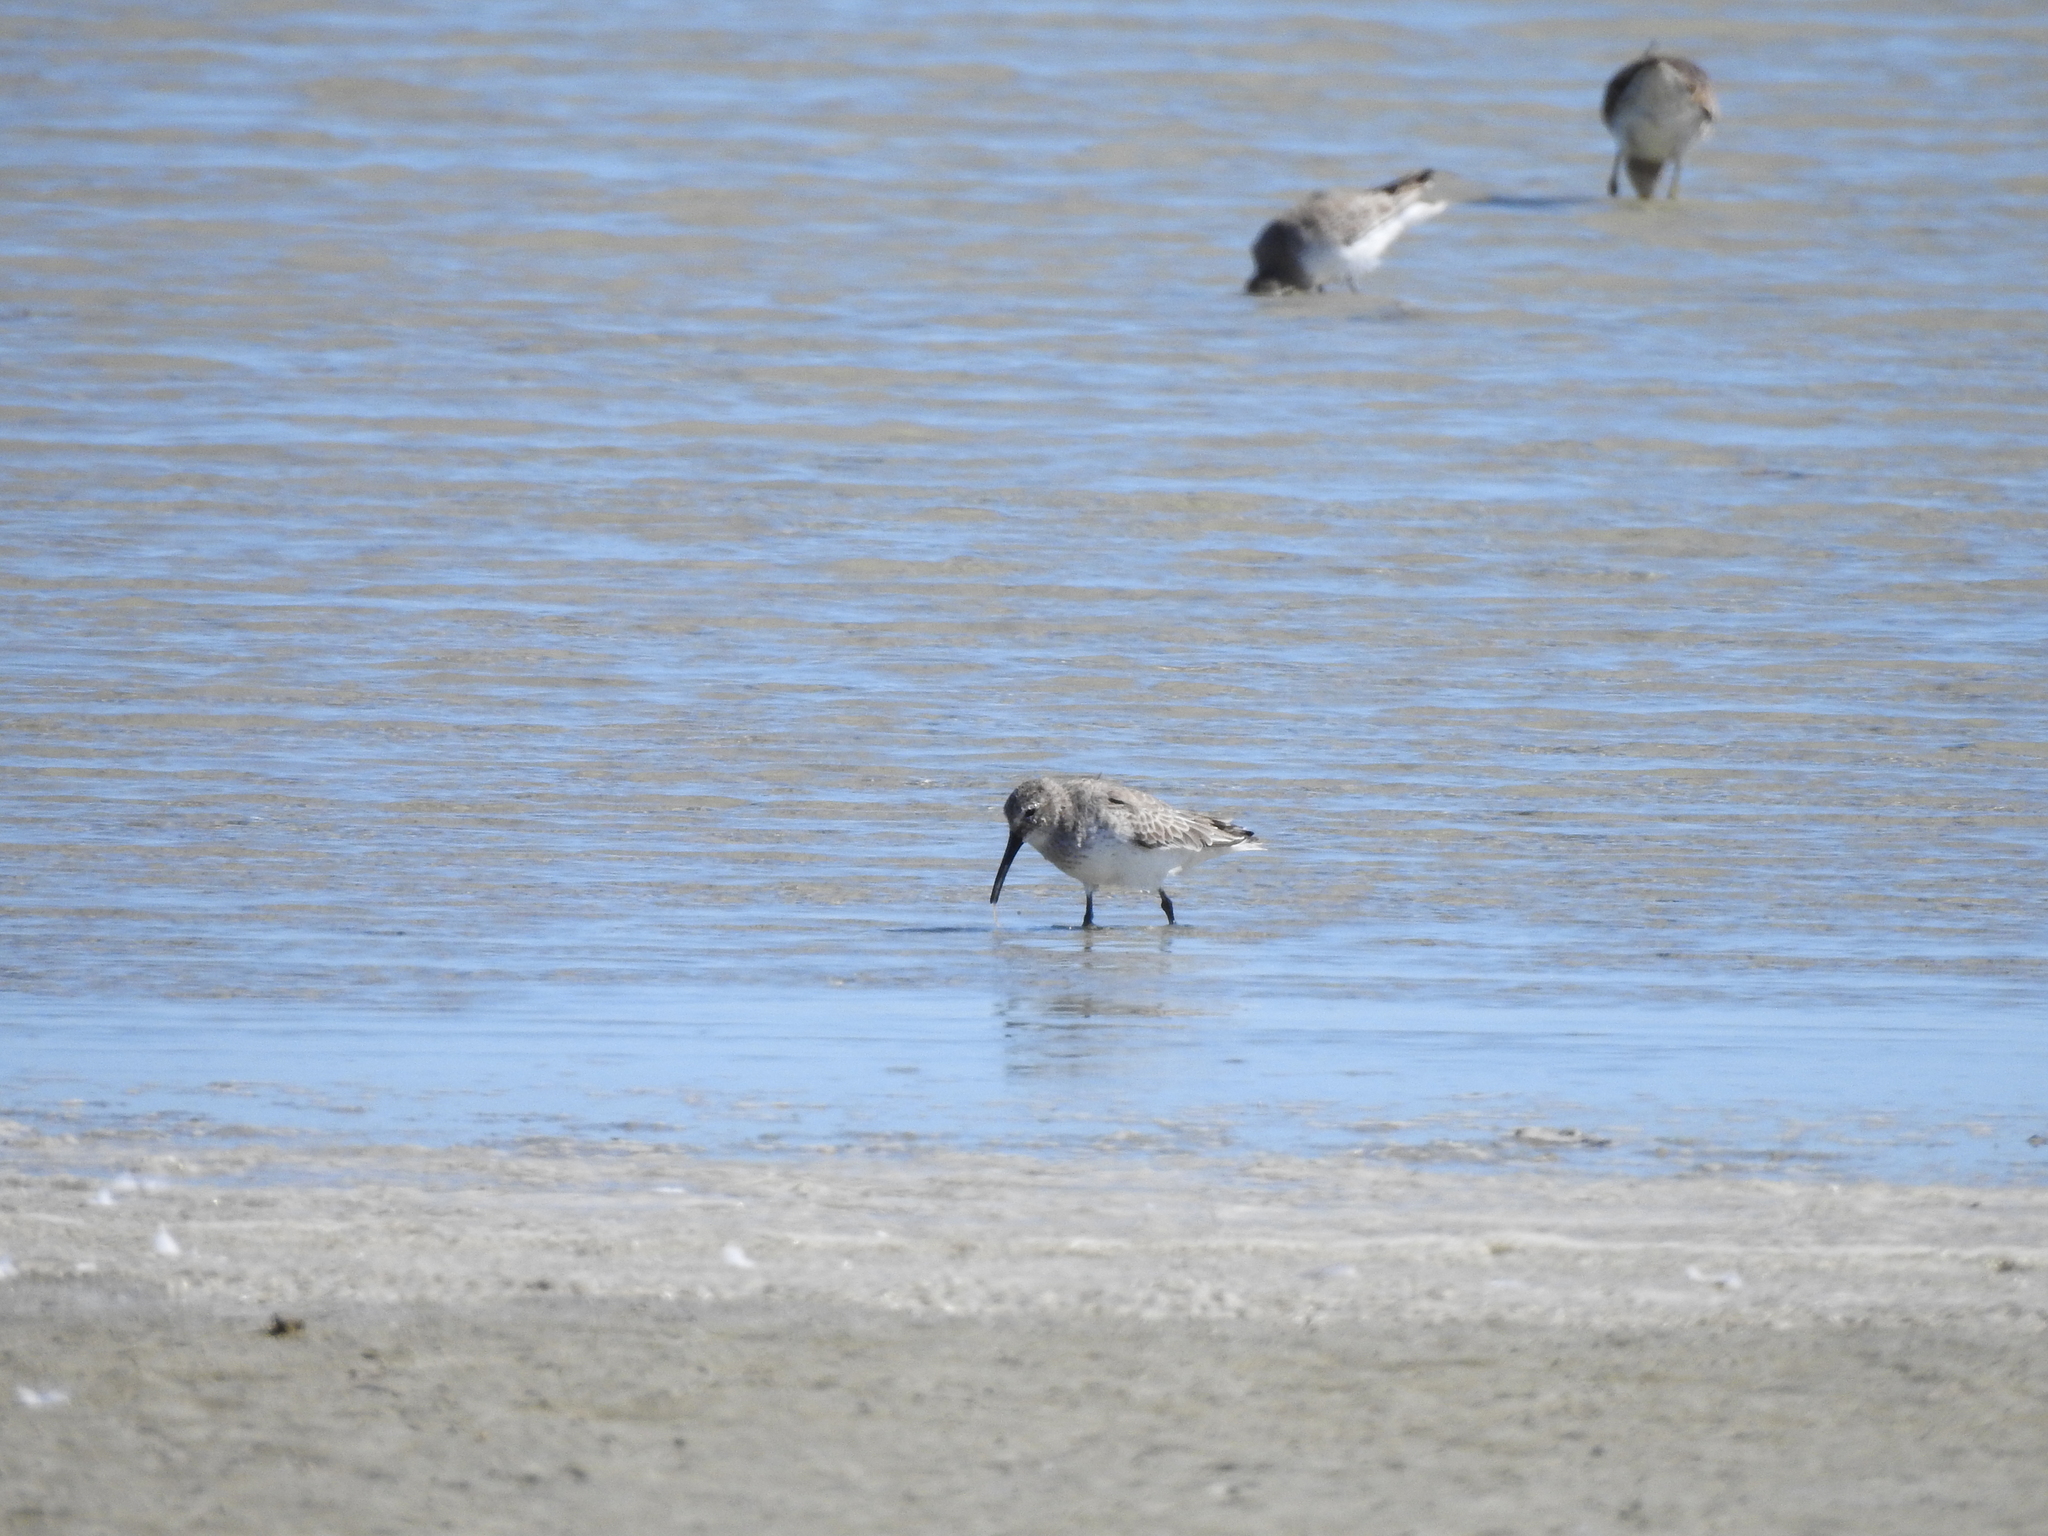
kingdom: Animalia
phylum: Chordata
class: Aves
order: Charadriiformes
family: Scolopacidae
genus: Calidris
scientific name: Calidris alpina
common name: Dunlin
